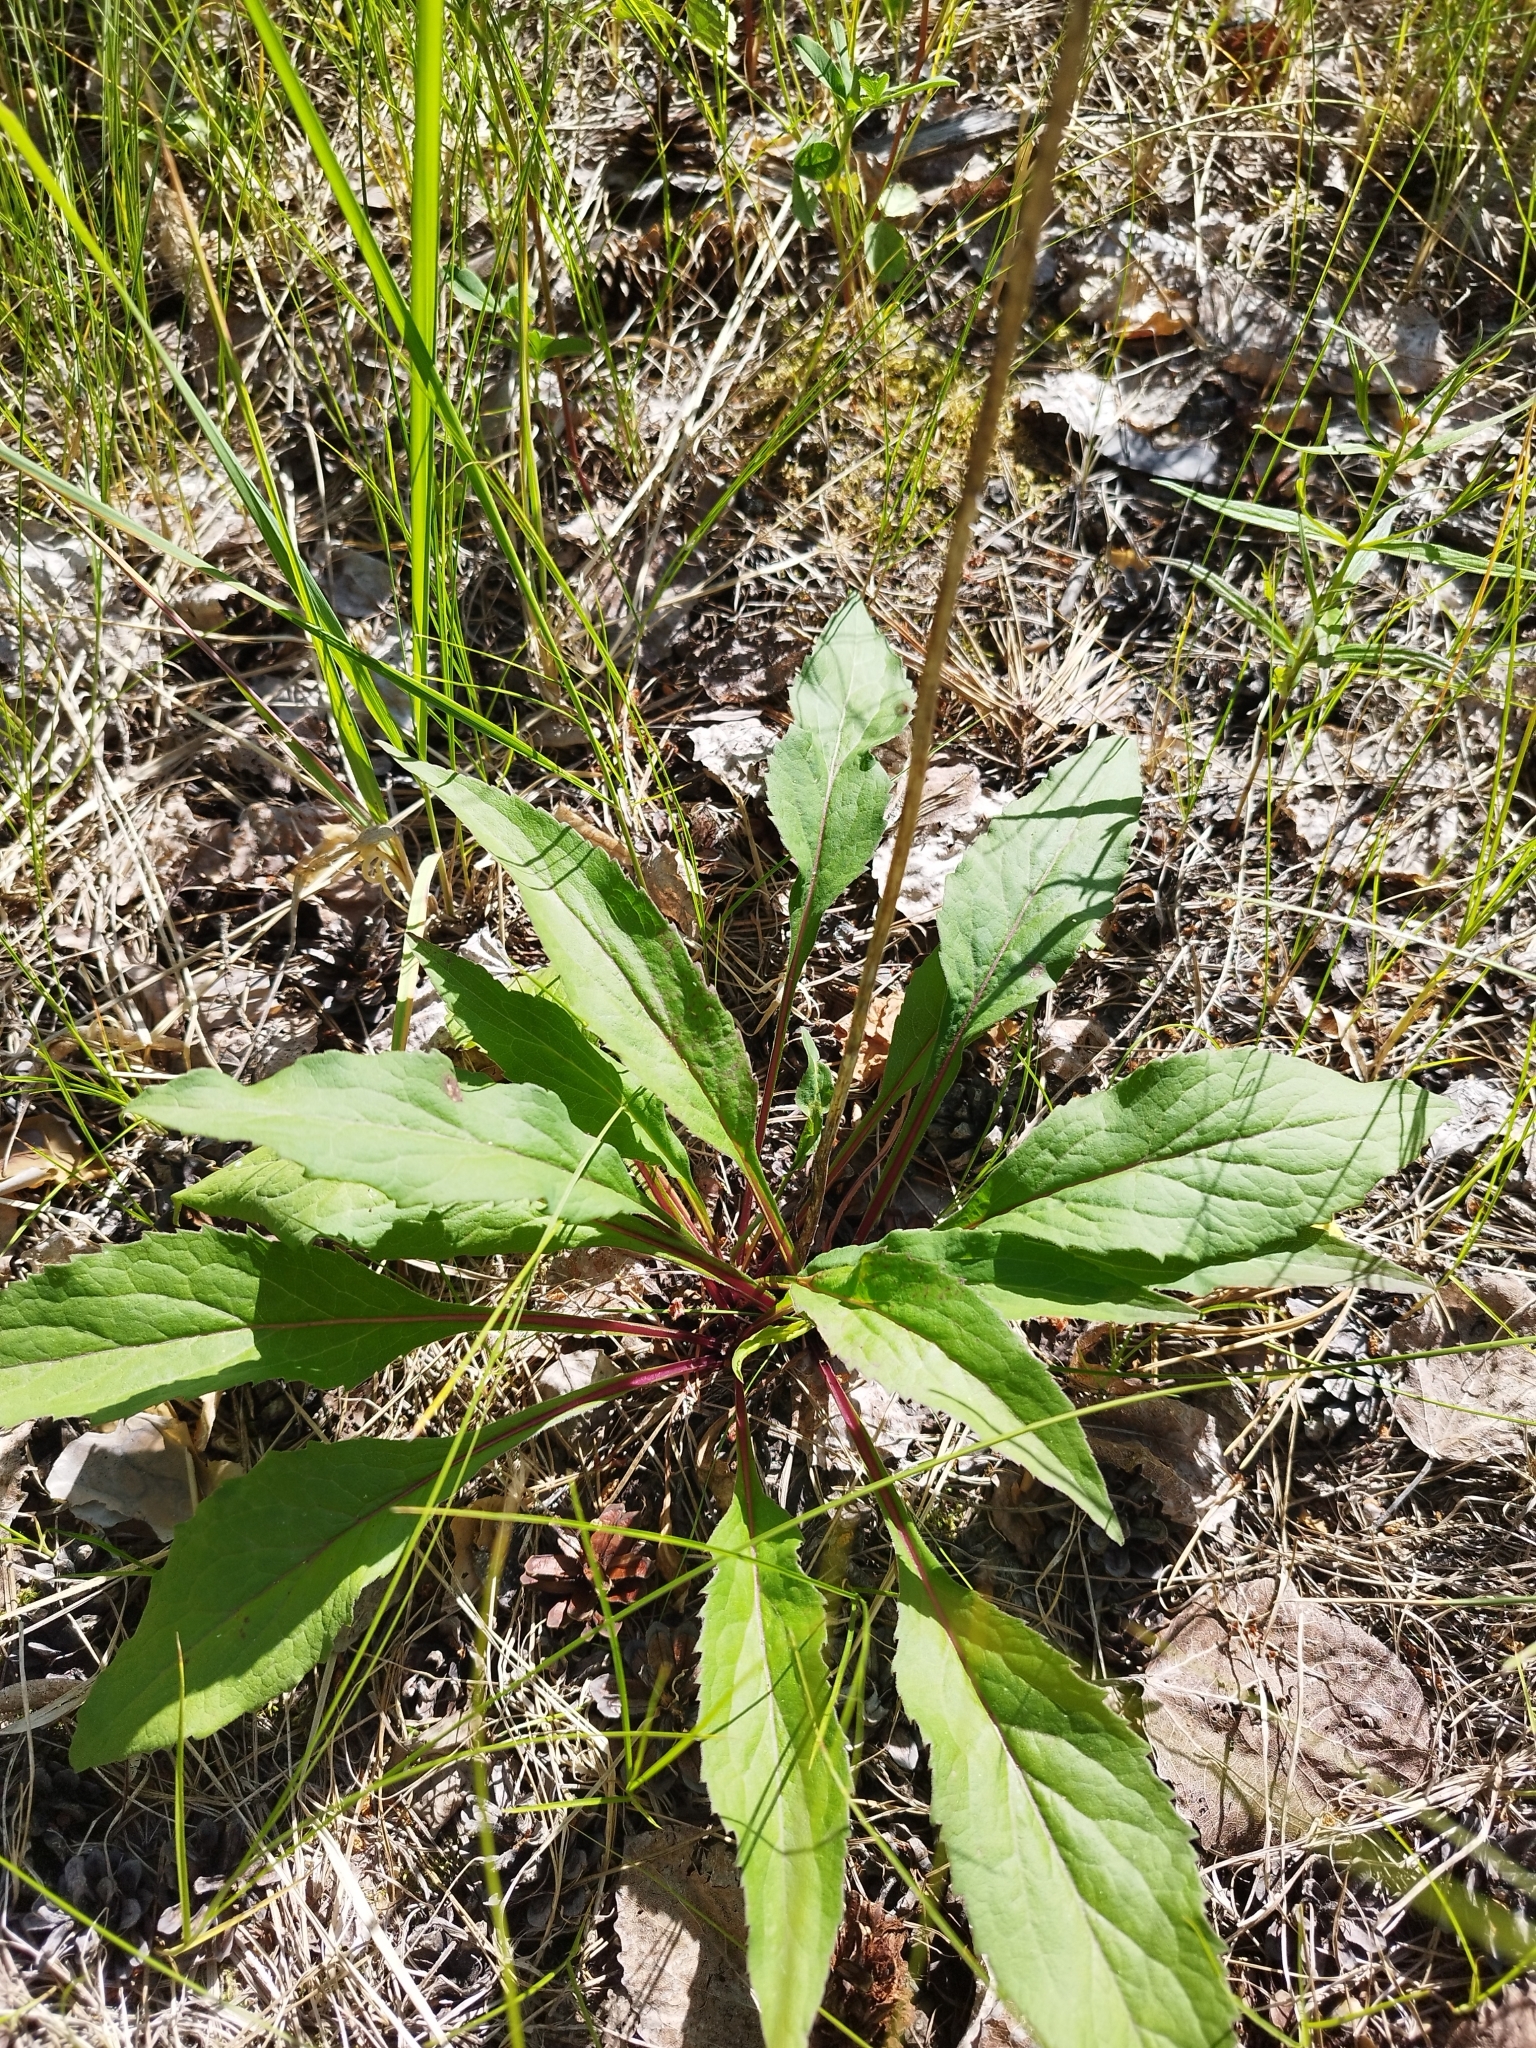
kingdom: Plantae
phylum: Tracheophyta
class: Magnoliopsida
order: Asterales
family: Asteraceae
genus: Solidago
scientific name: Solidago virgaurea
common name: Goldenrod
